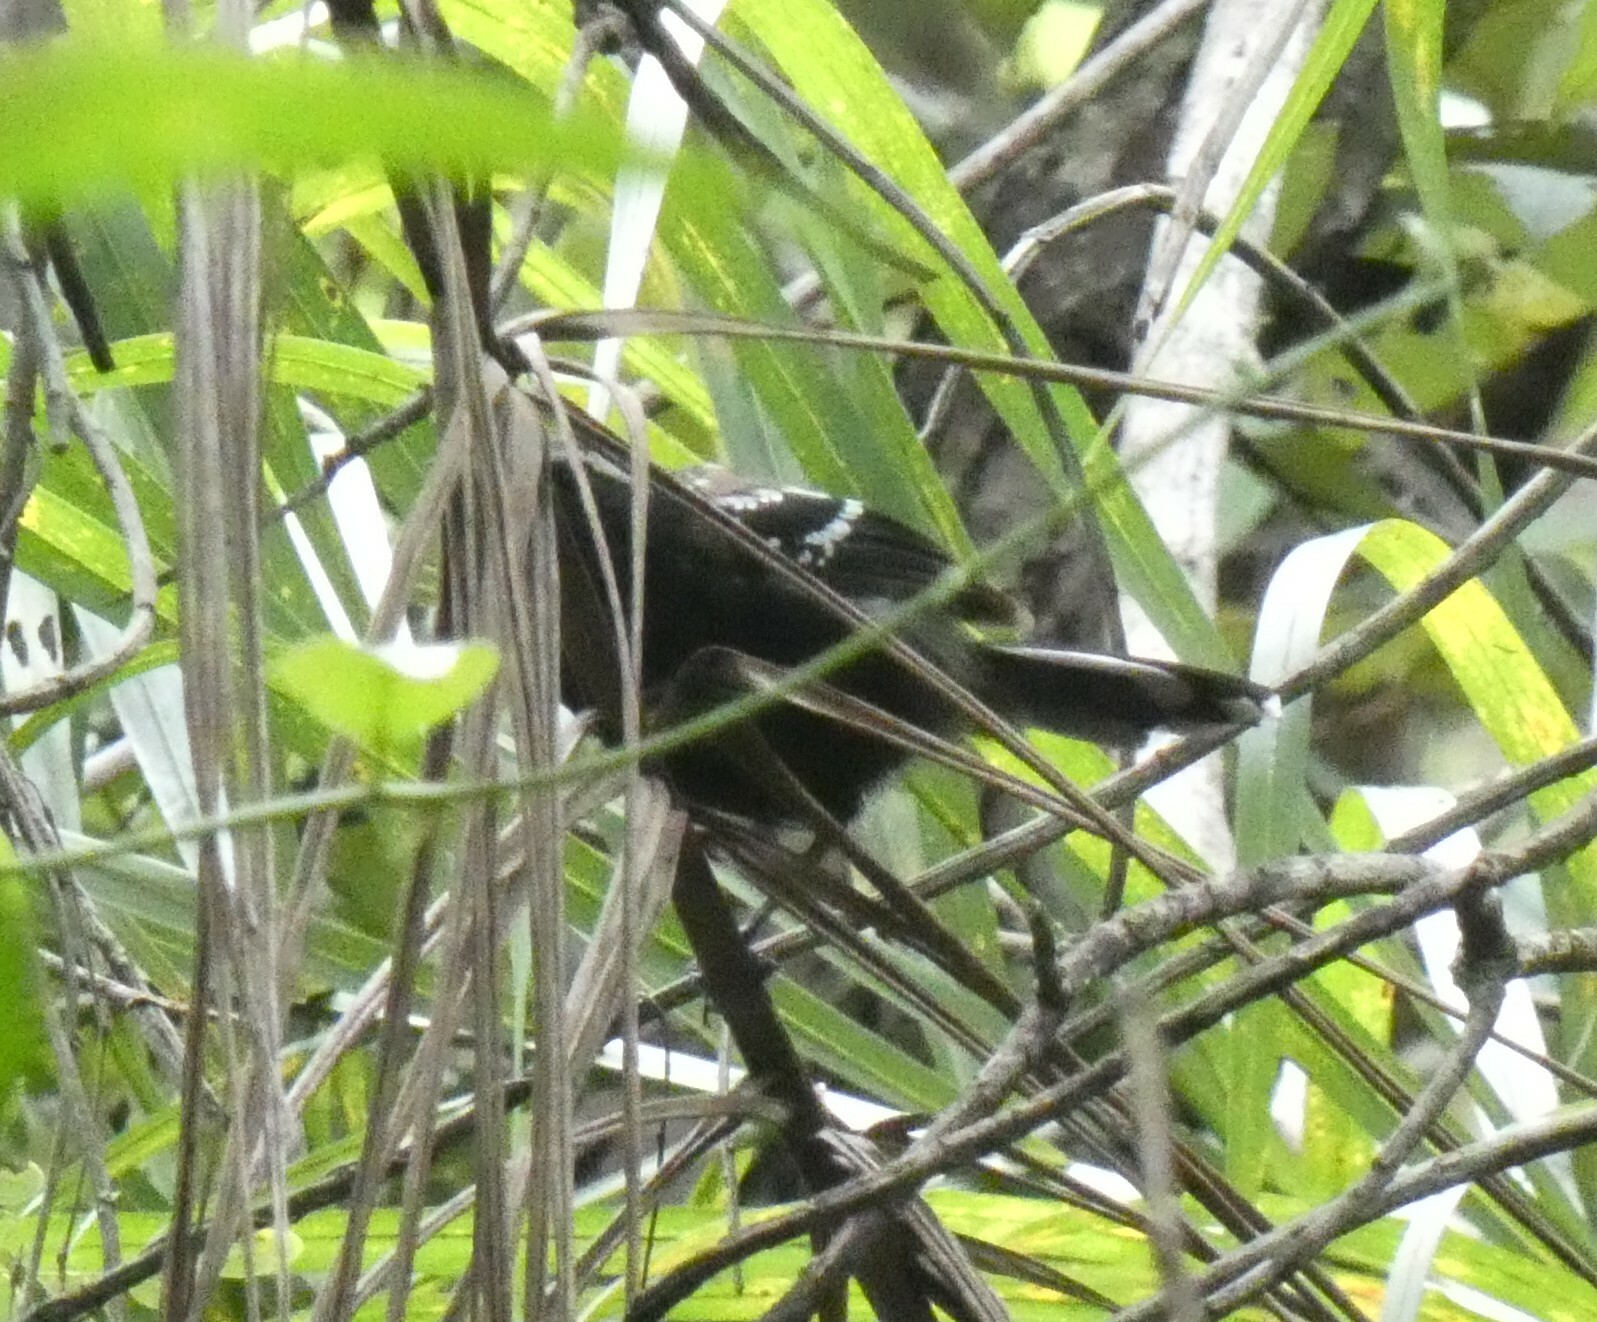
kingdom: Animalia
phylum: Chordata
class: Aves
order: Passeriformes
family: Thamnophilidae
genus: Formicivora
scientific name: Formicivora serrana
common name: Serra antwren
